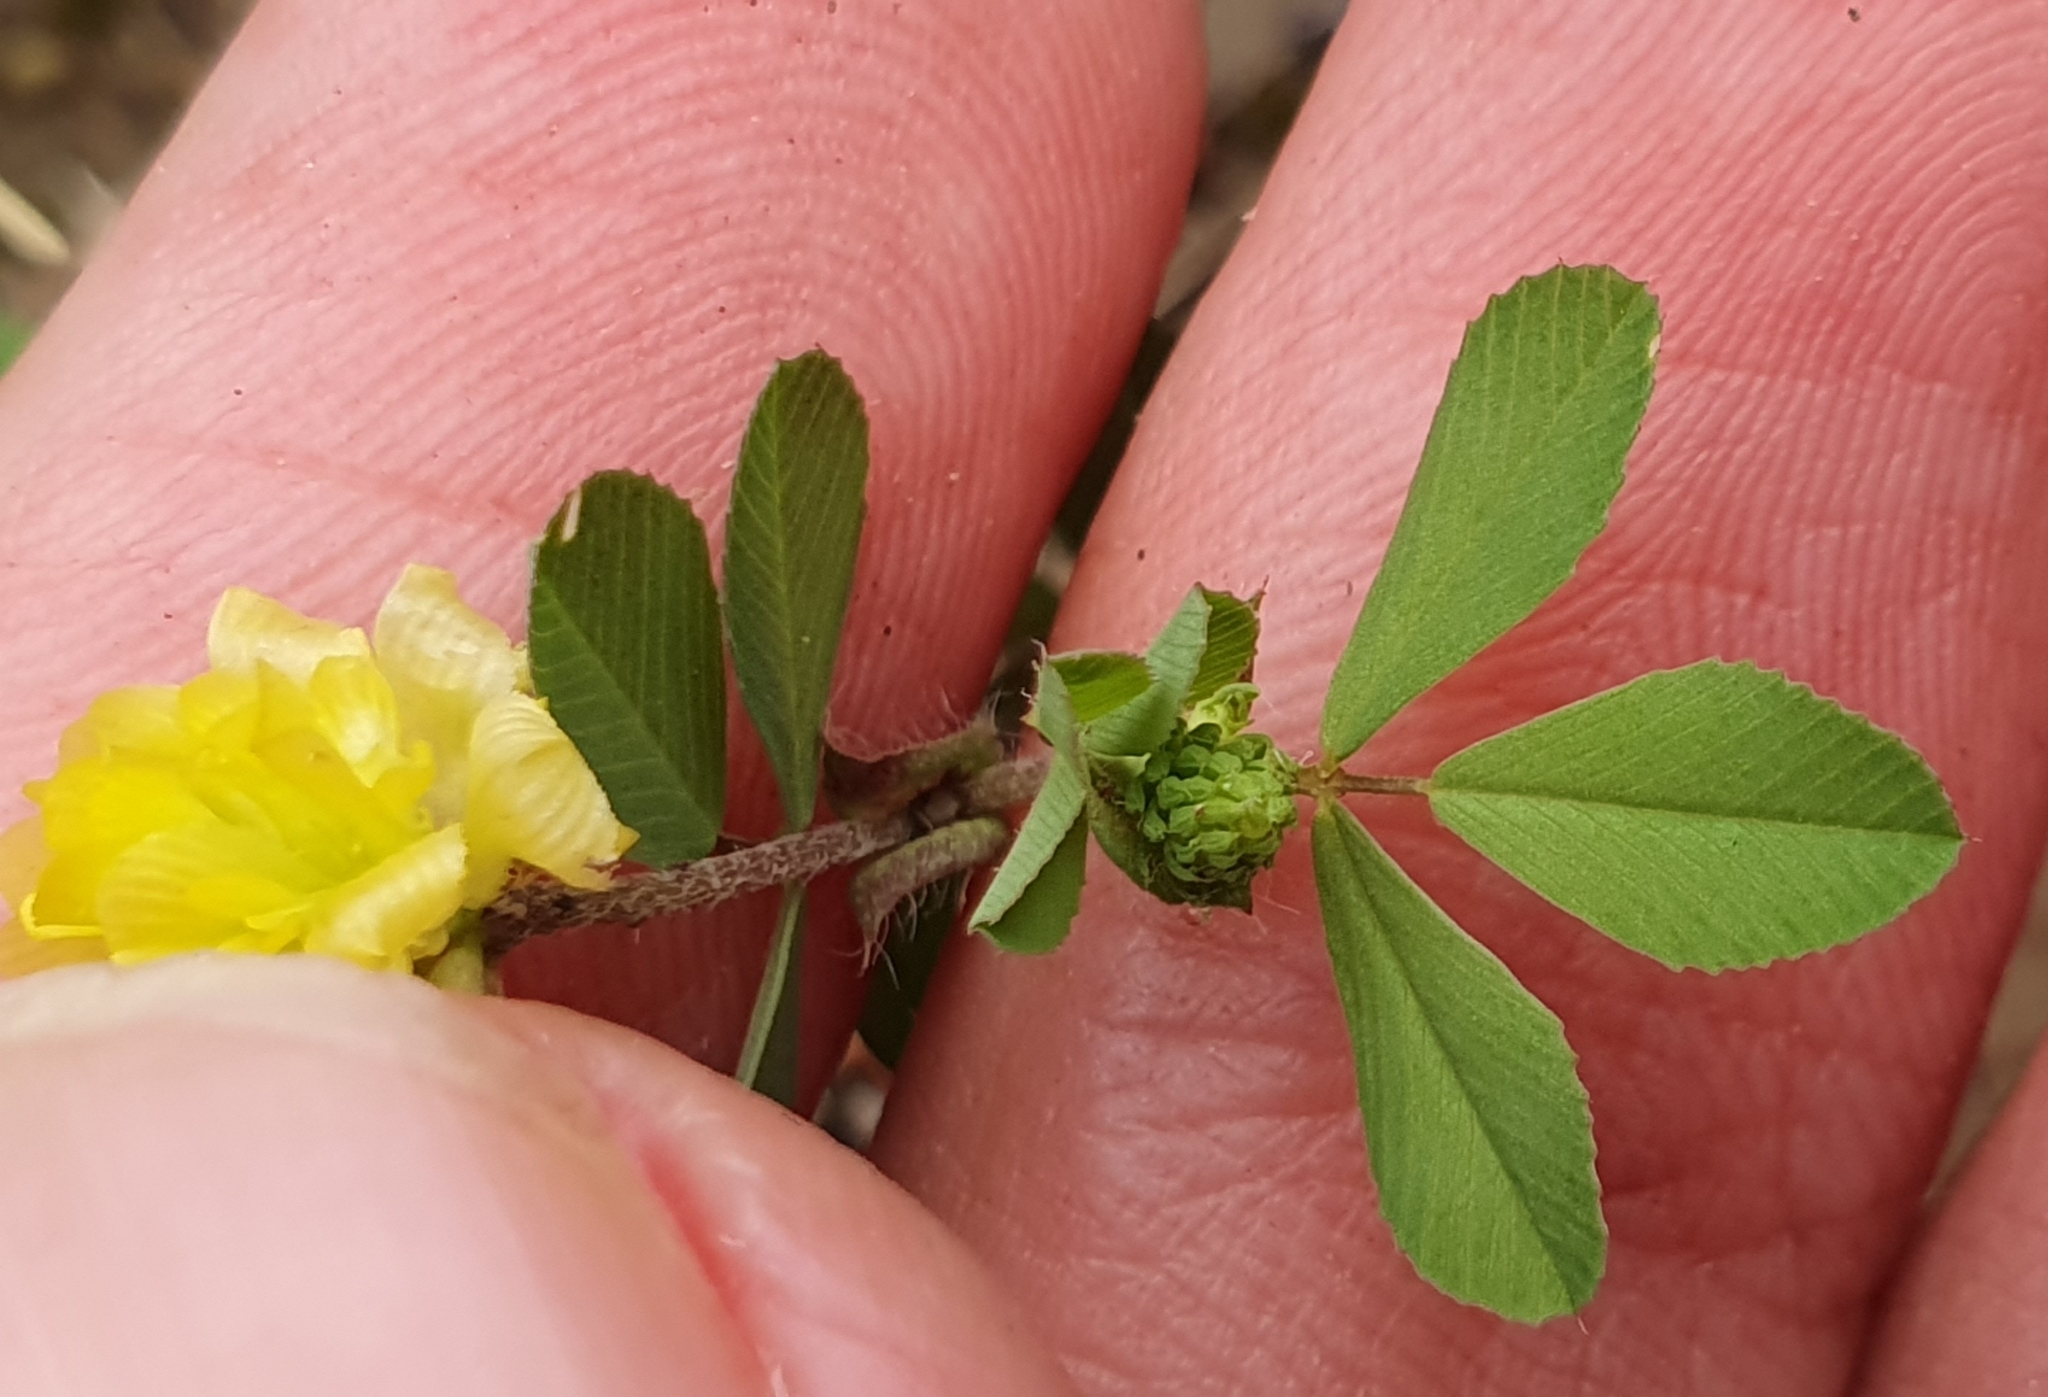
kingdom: Plantae
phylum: Tracheophyta
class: Magnoliopsida
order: Fabales
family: Fabaceae
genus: Trifolium
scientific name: Trifolium campestre
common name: Field clover
